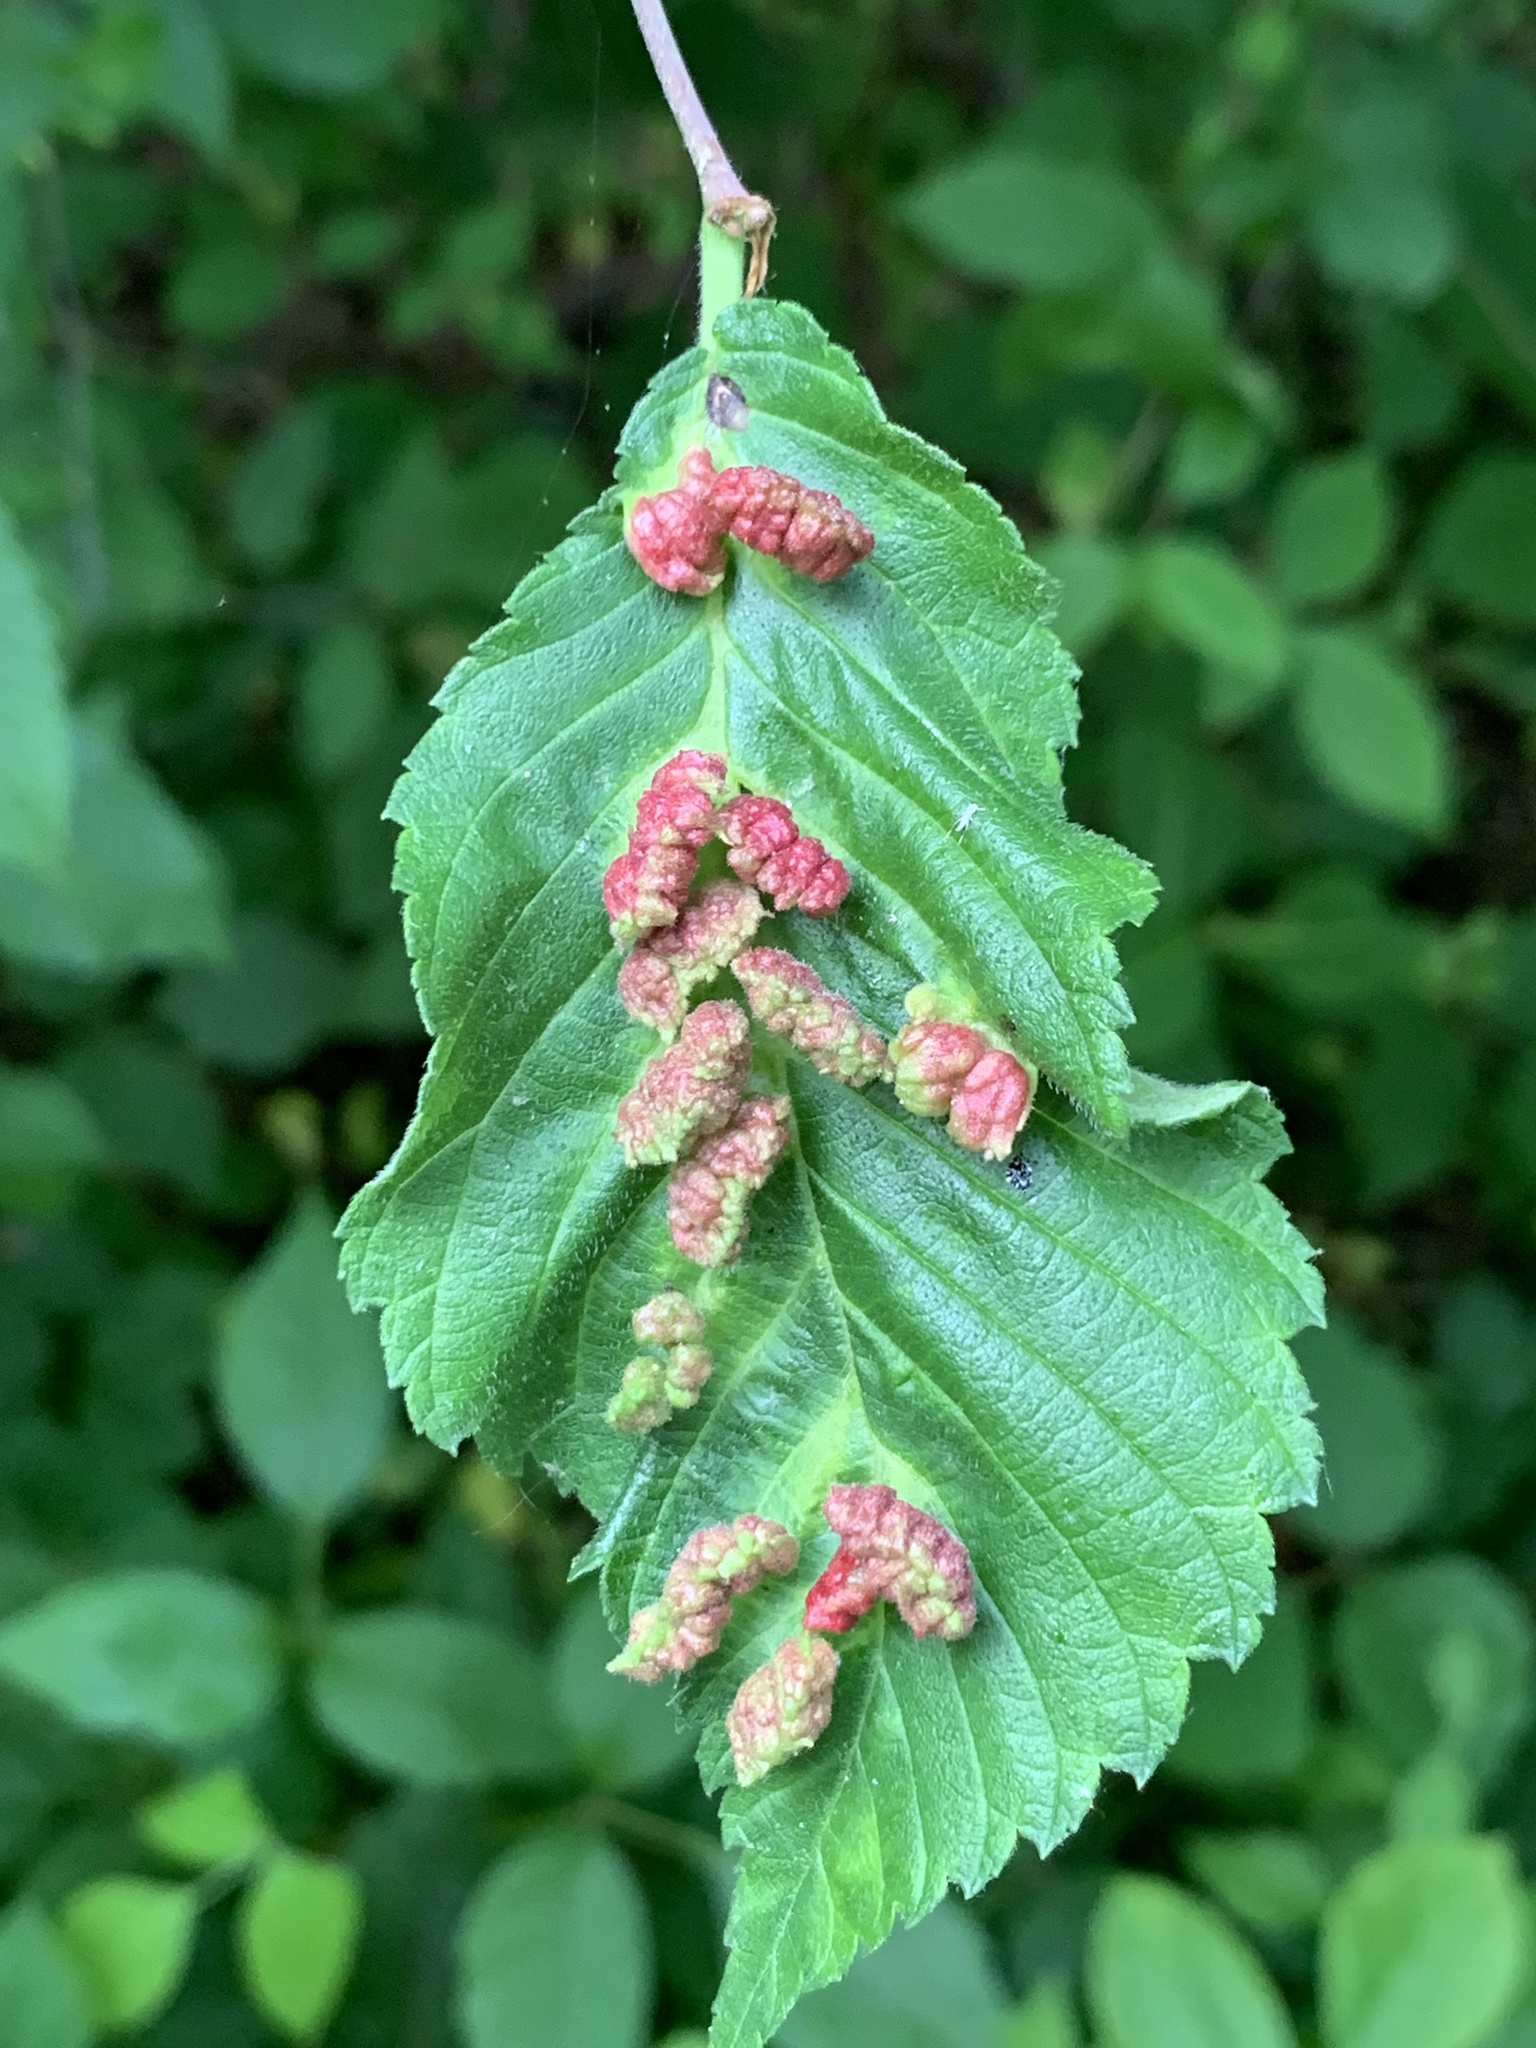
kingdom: Animalia
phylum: Arthropoda
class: Insecta
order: Hemiptera
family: Aphididae
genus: Colopha
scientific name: Colopha ulmicola
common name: Elm cockscombgall aphid
